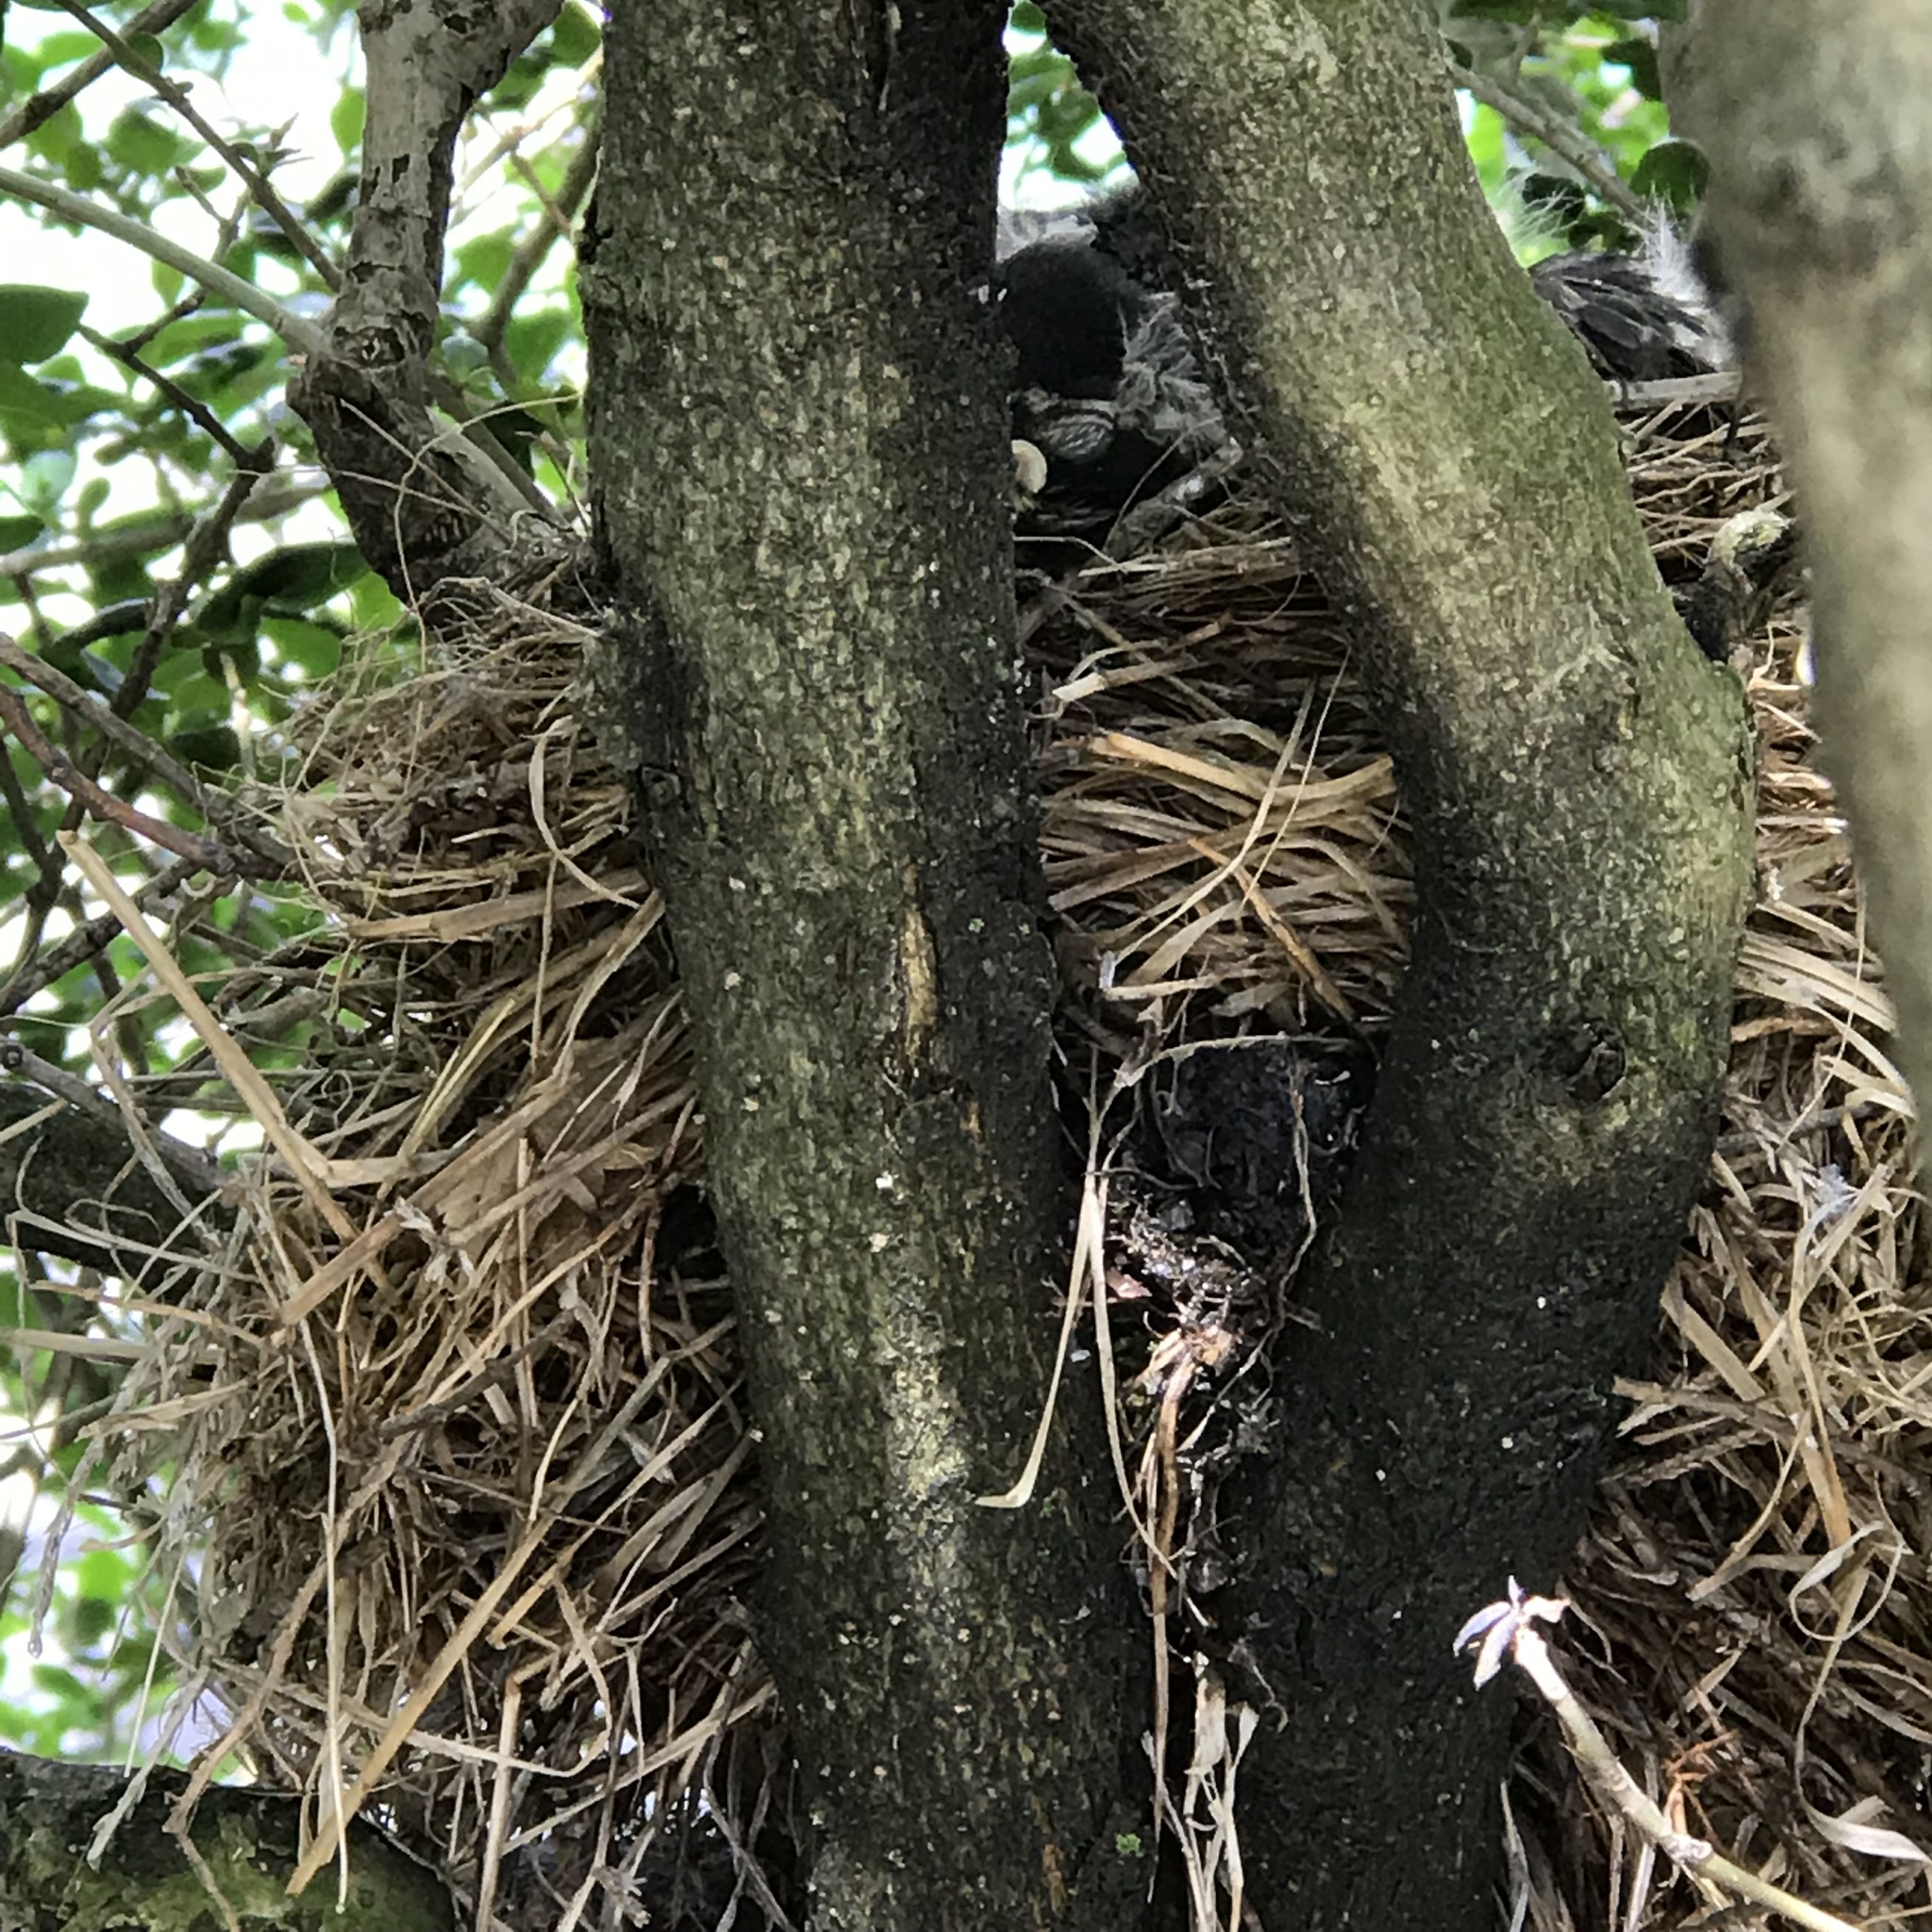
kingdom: Animalia
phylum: Chordata
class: Aves
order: Passeriformes
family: Turdidae
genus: Turdus
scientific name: Turdus migratorius
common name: American robin
